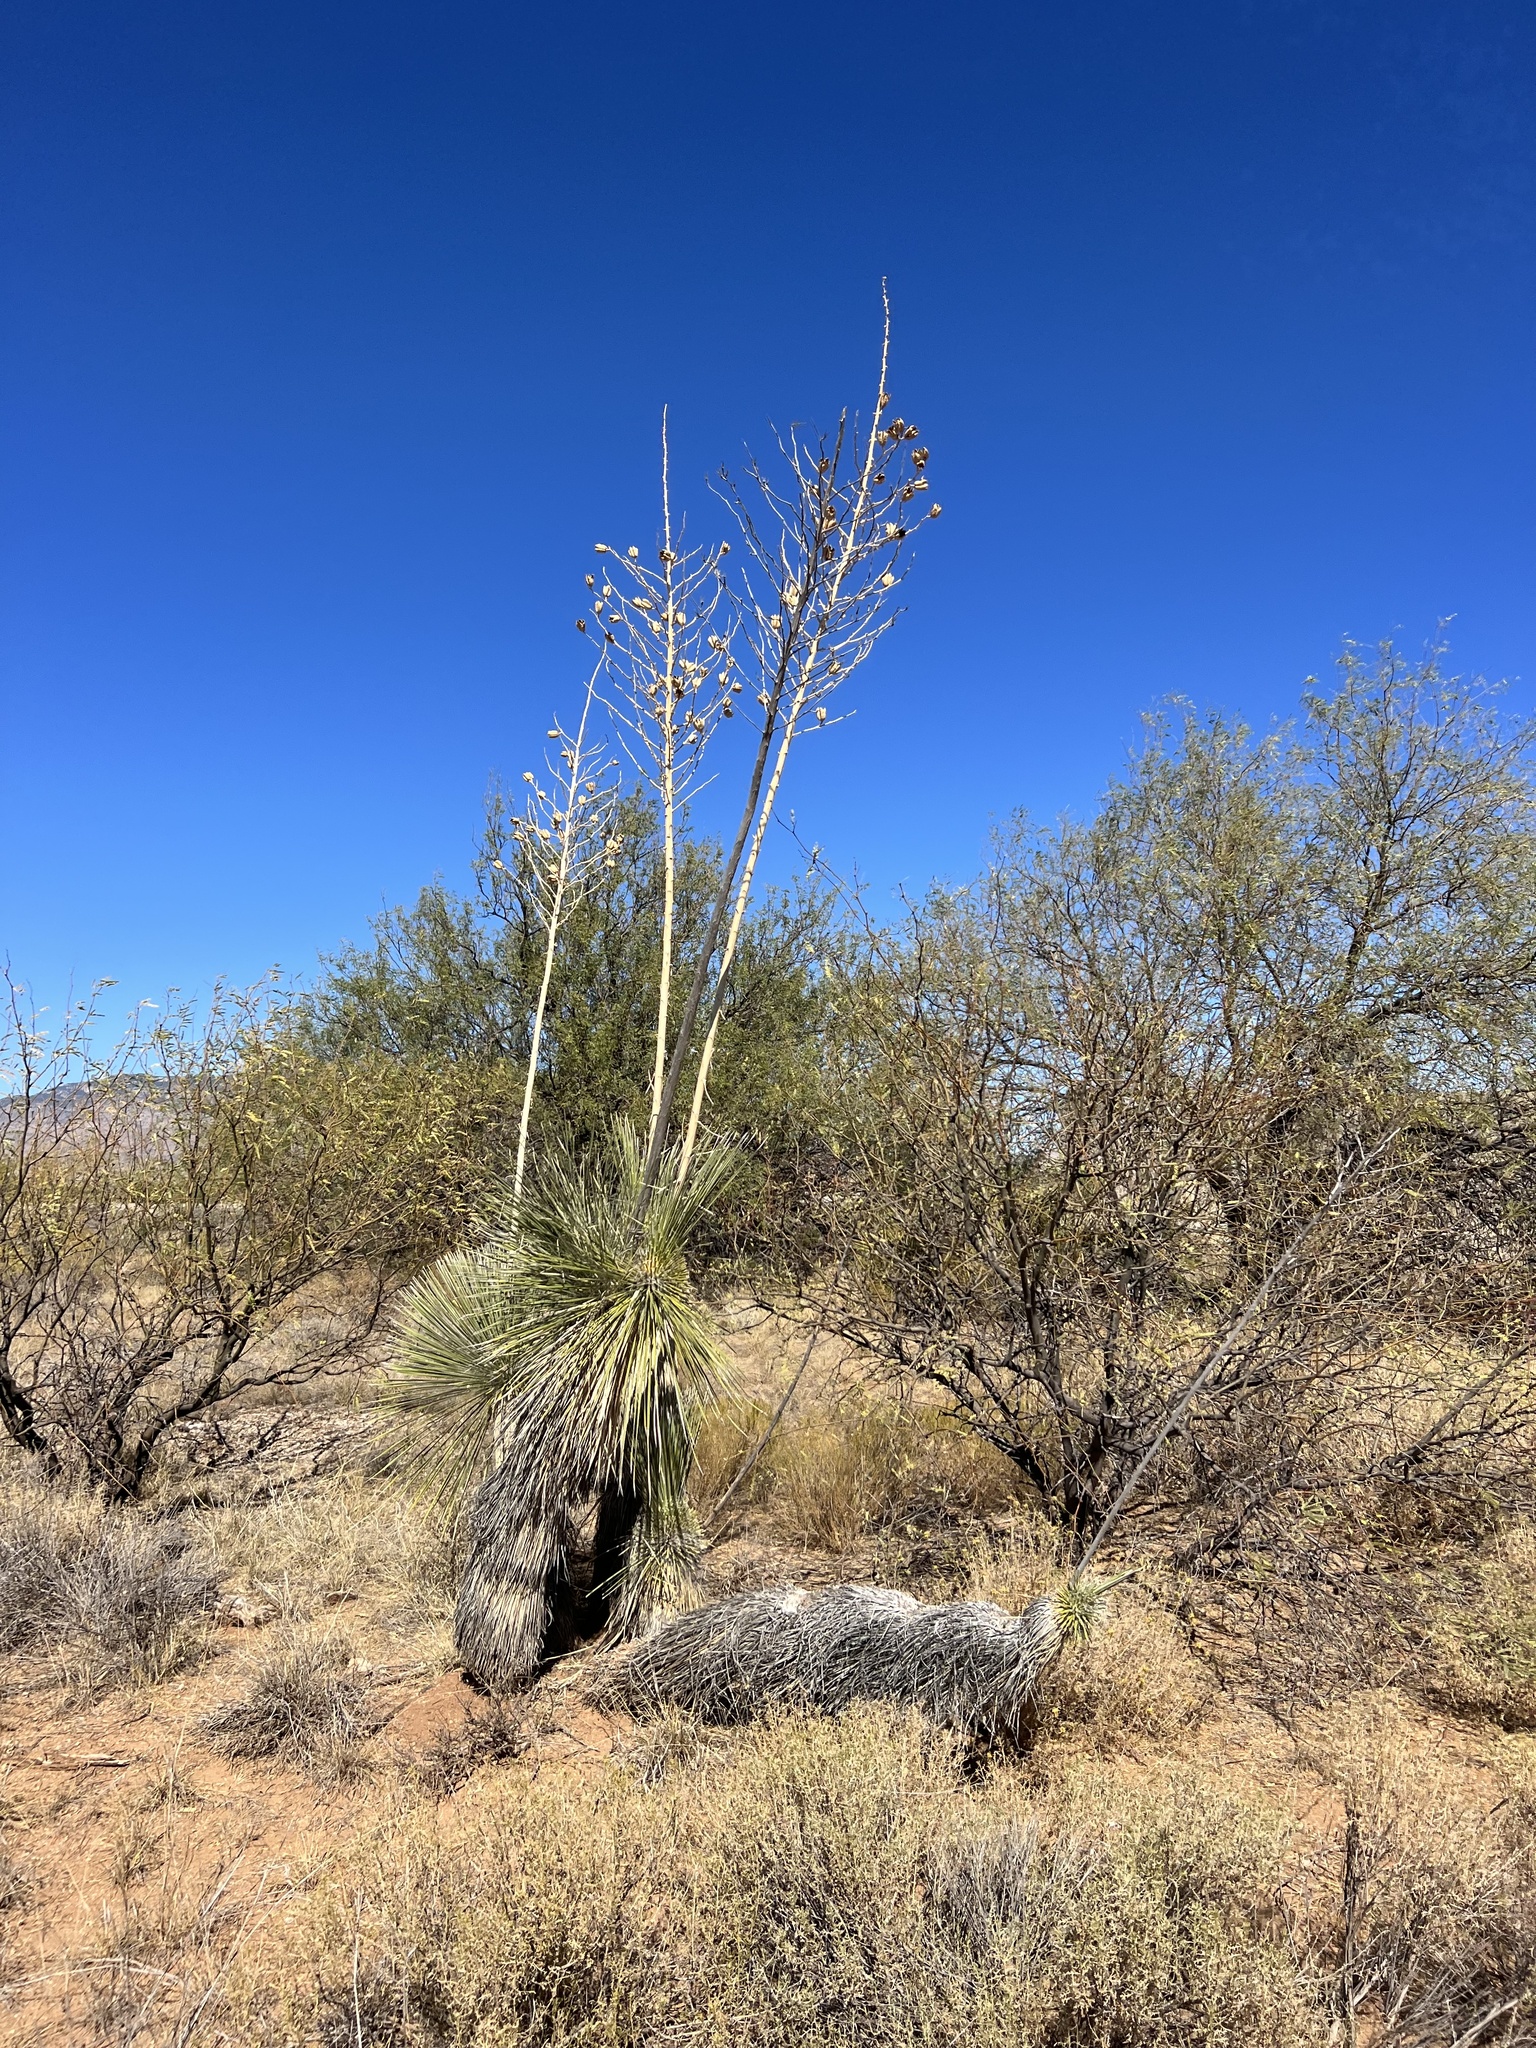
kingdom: Plantae
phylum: Tracheophyta
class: Liliopsida
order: Asparagales
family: Asparagaceae
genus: Yucca
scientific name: Yucca elata
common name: Palmella
